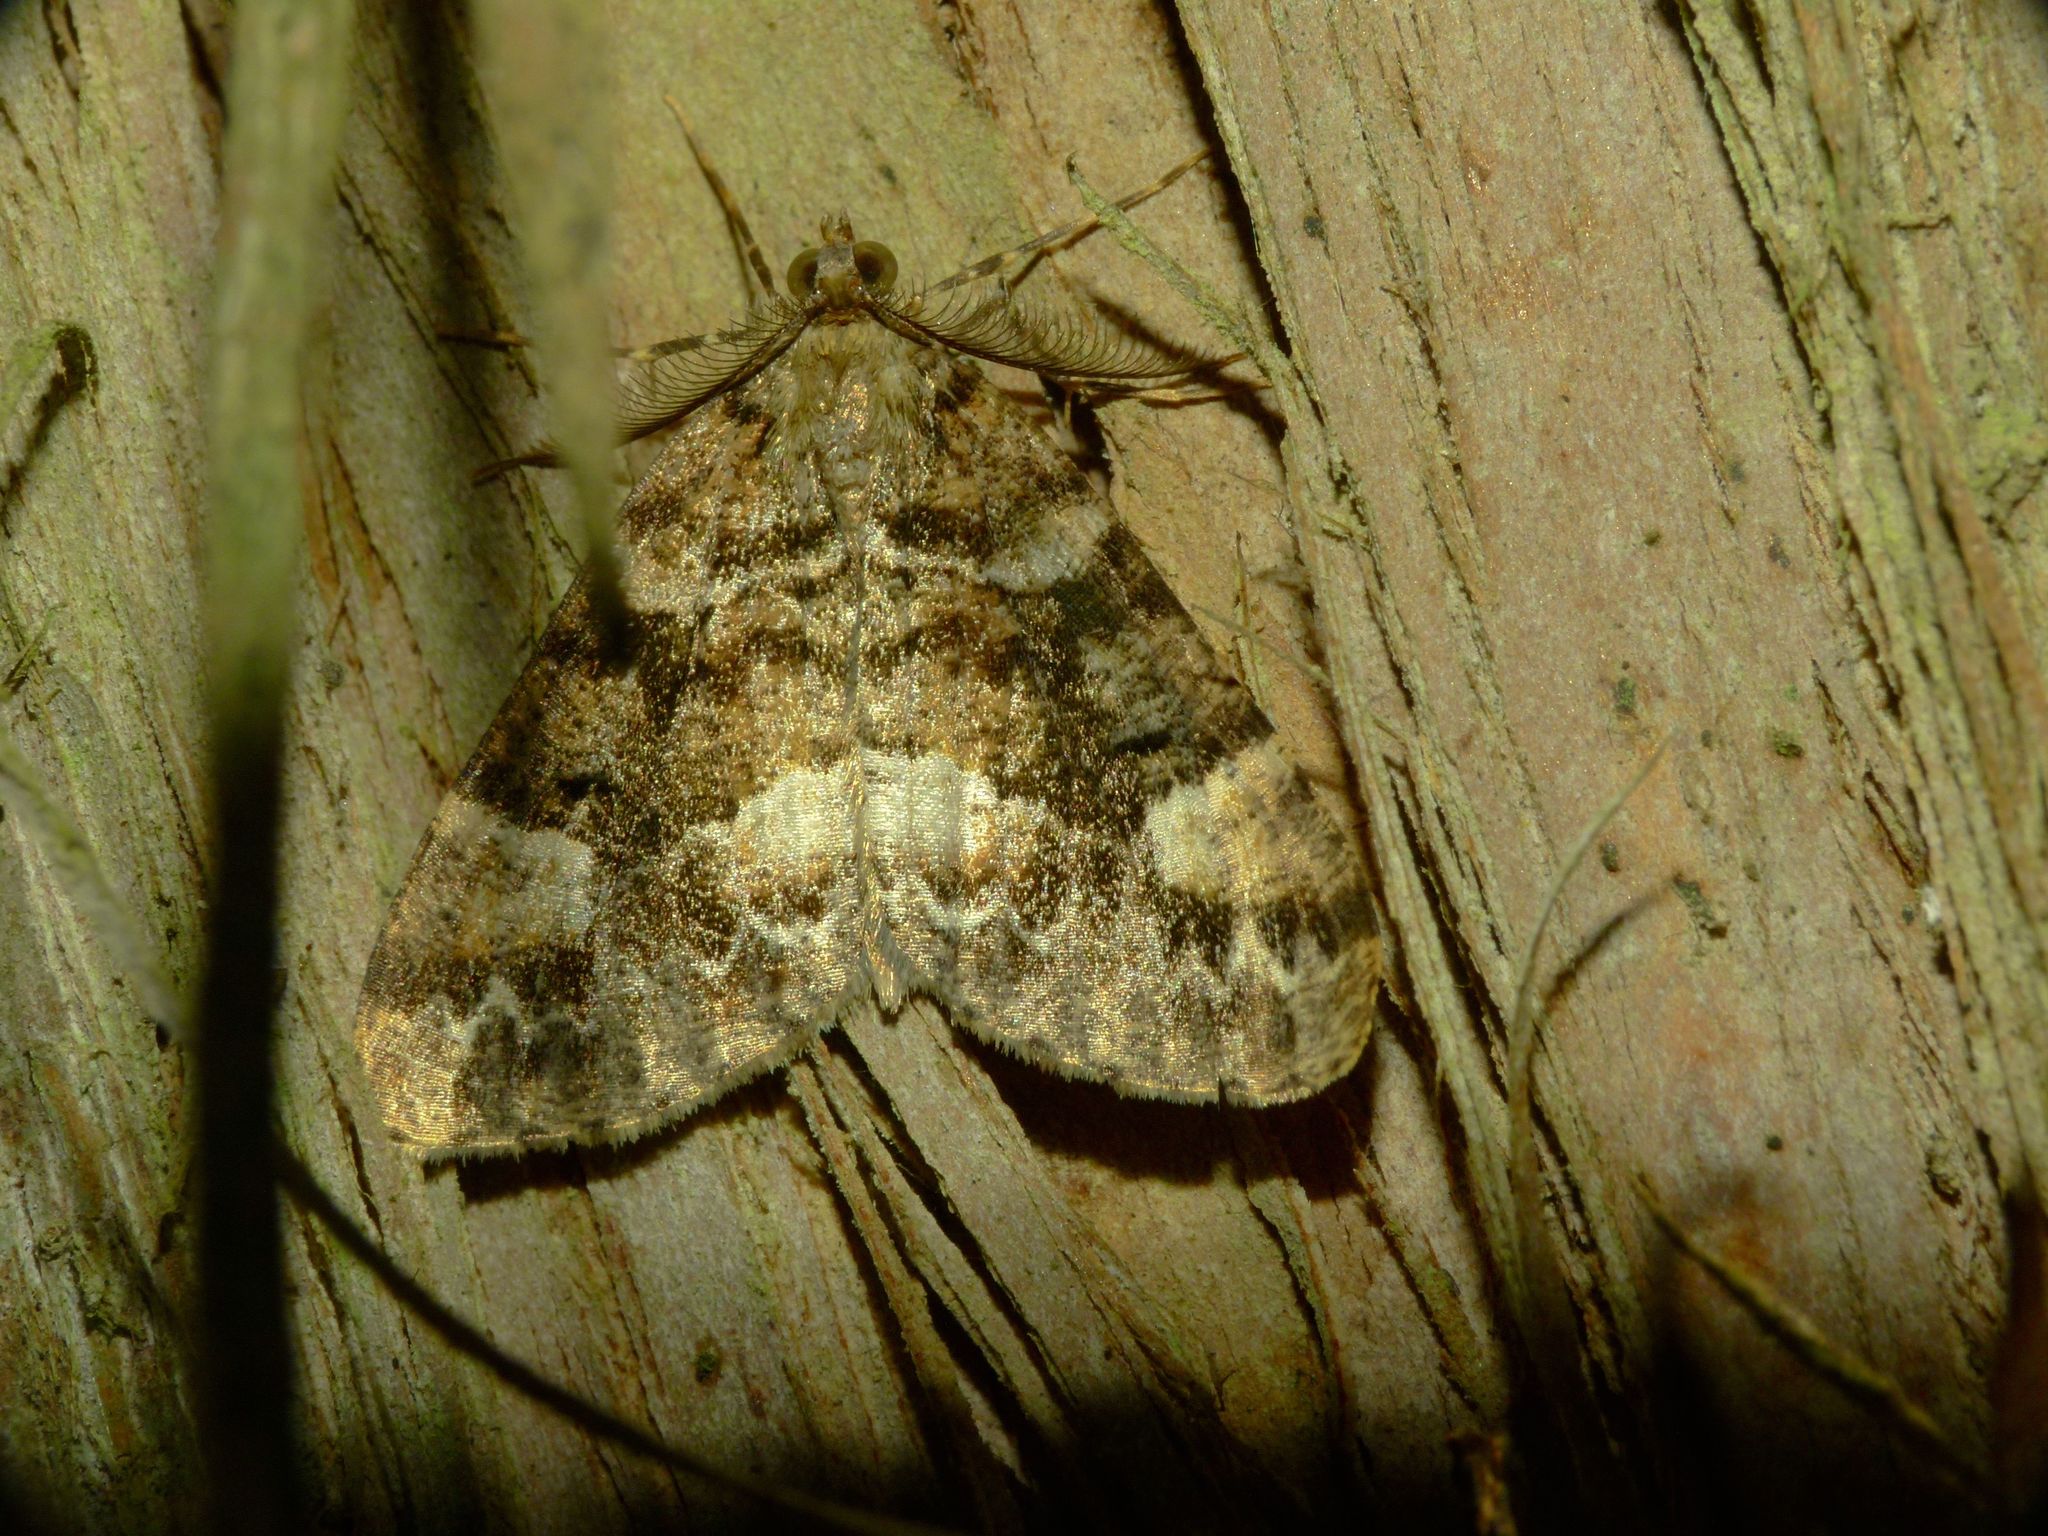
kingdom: Animalia
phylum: Arthropoda
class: Insecta
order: Lepidoptera
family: Geometridae
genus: Pseudocoremia
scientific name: Pseudocoremia productata
